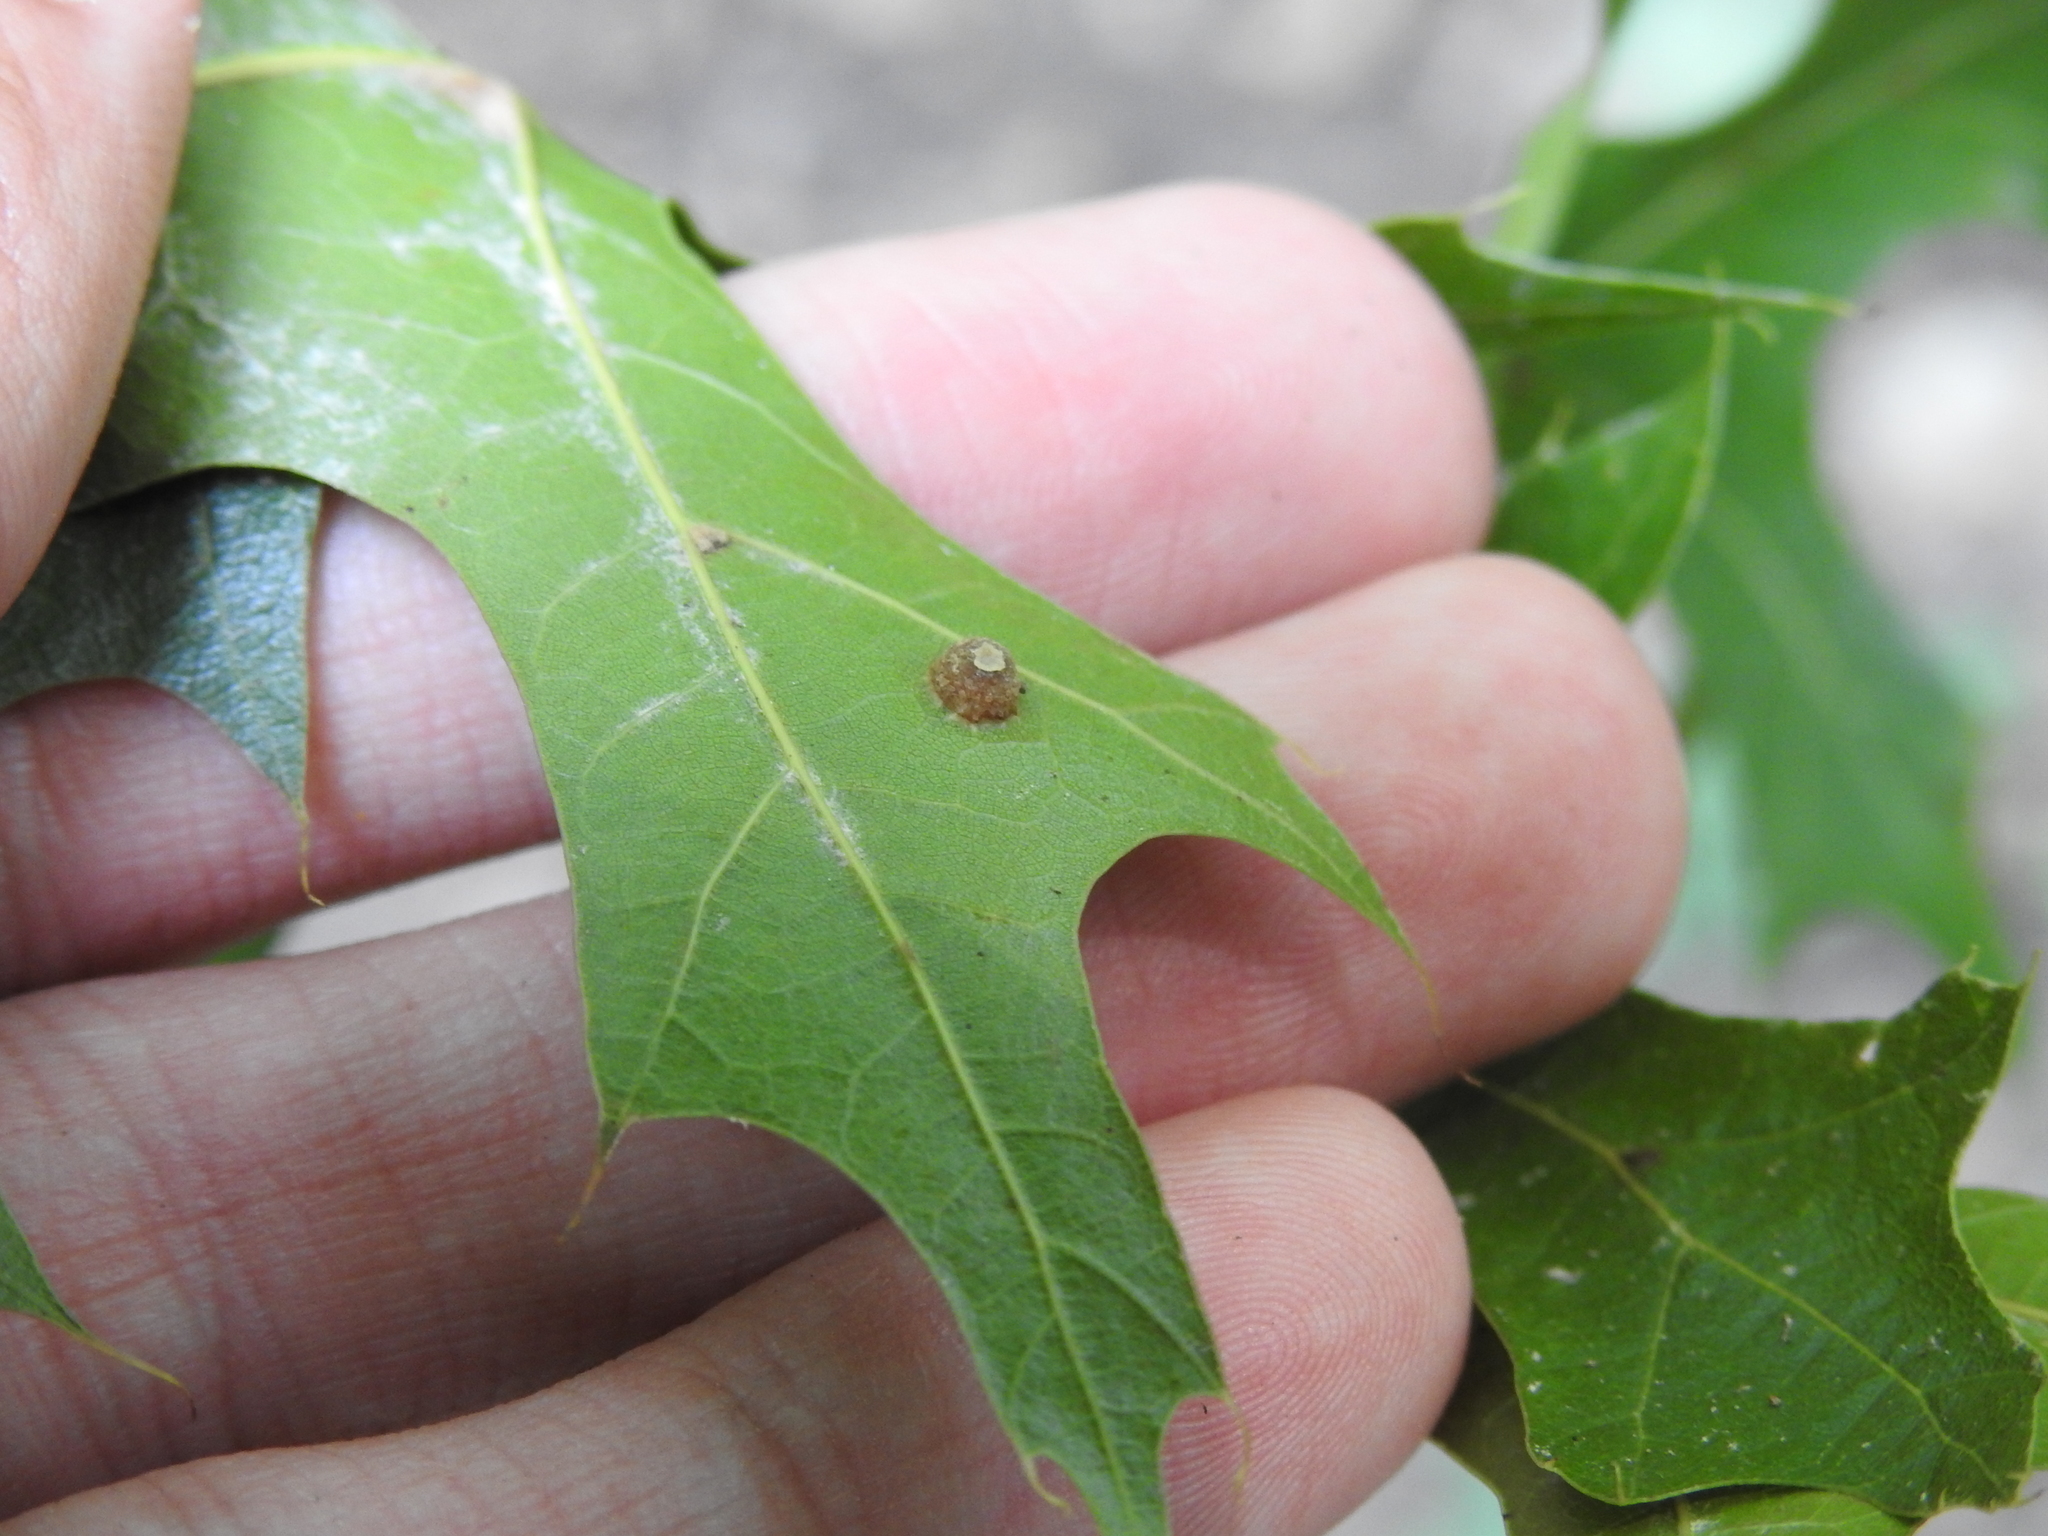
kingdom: Animalia
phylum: Arthropoda
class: Insecta
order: Diptera
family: Cecidomyiidae
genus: Polystepha
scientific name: Polystepha globosa
